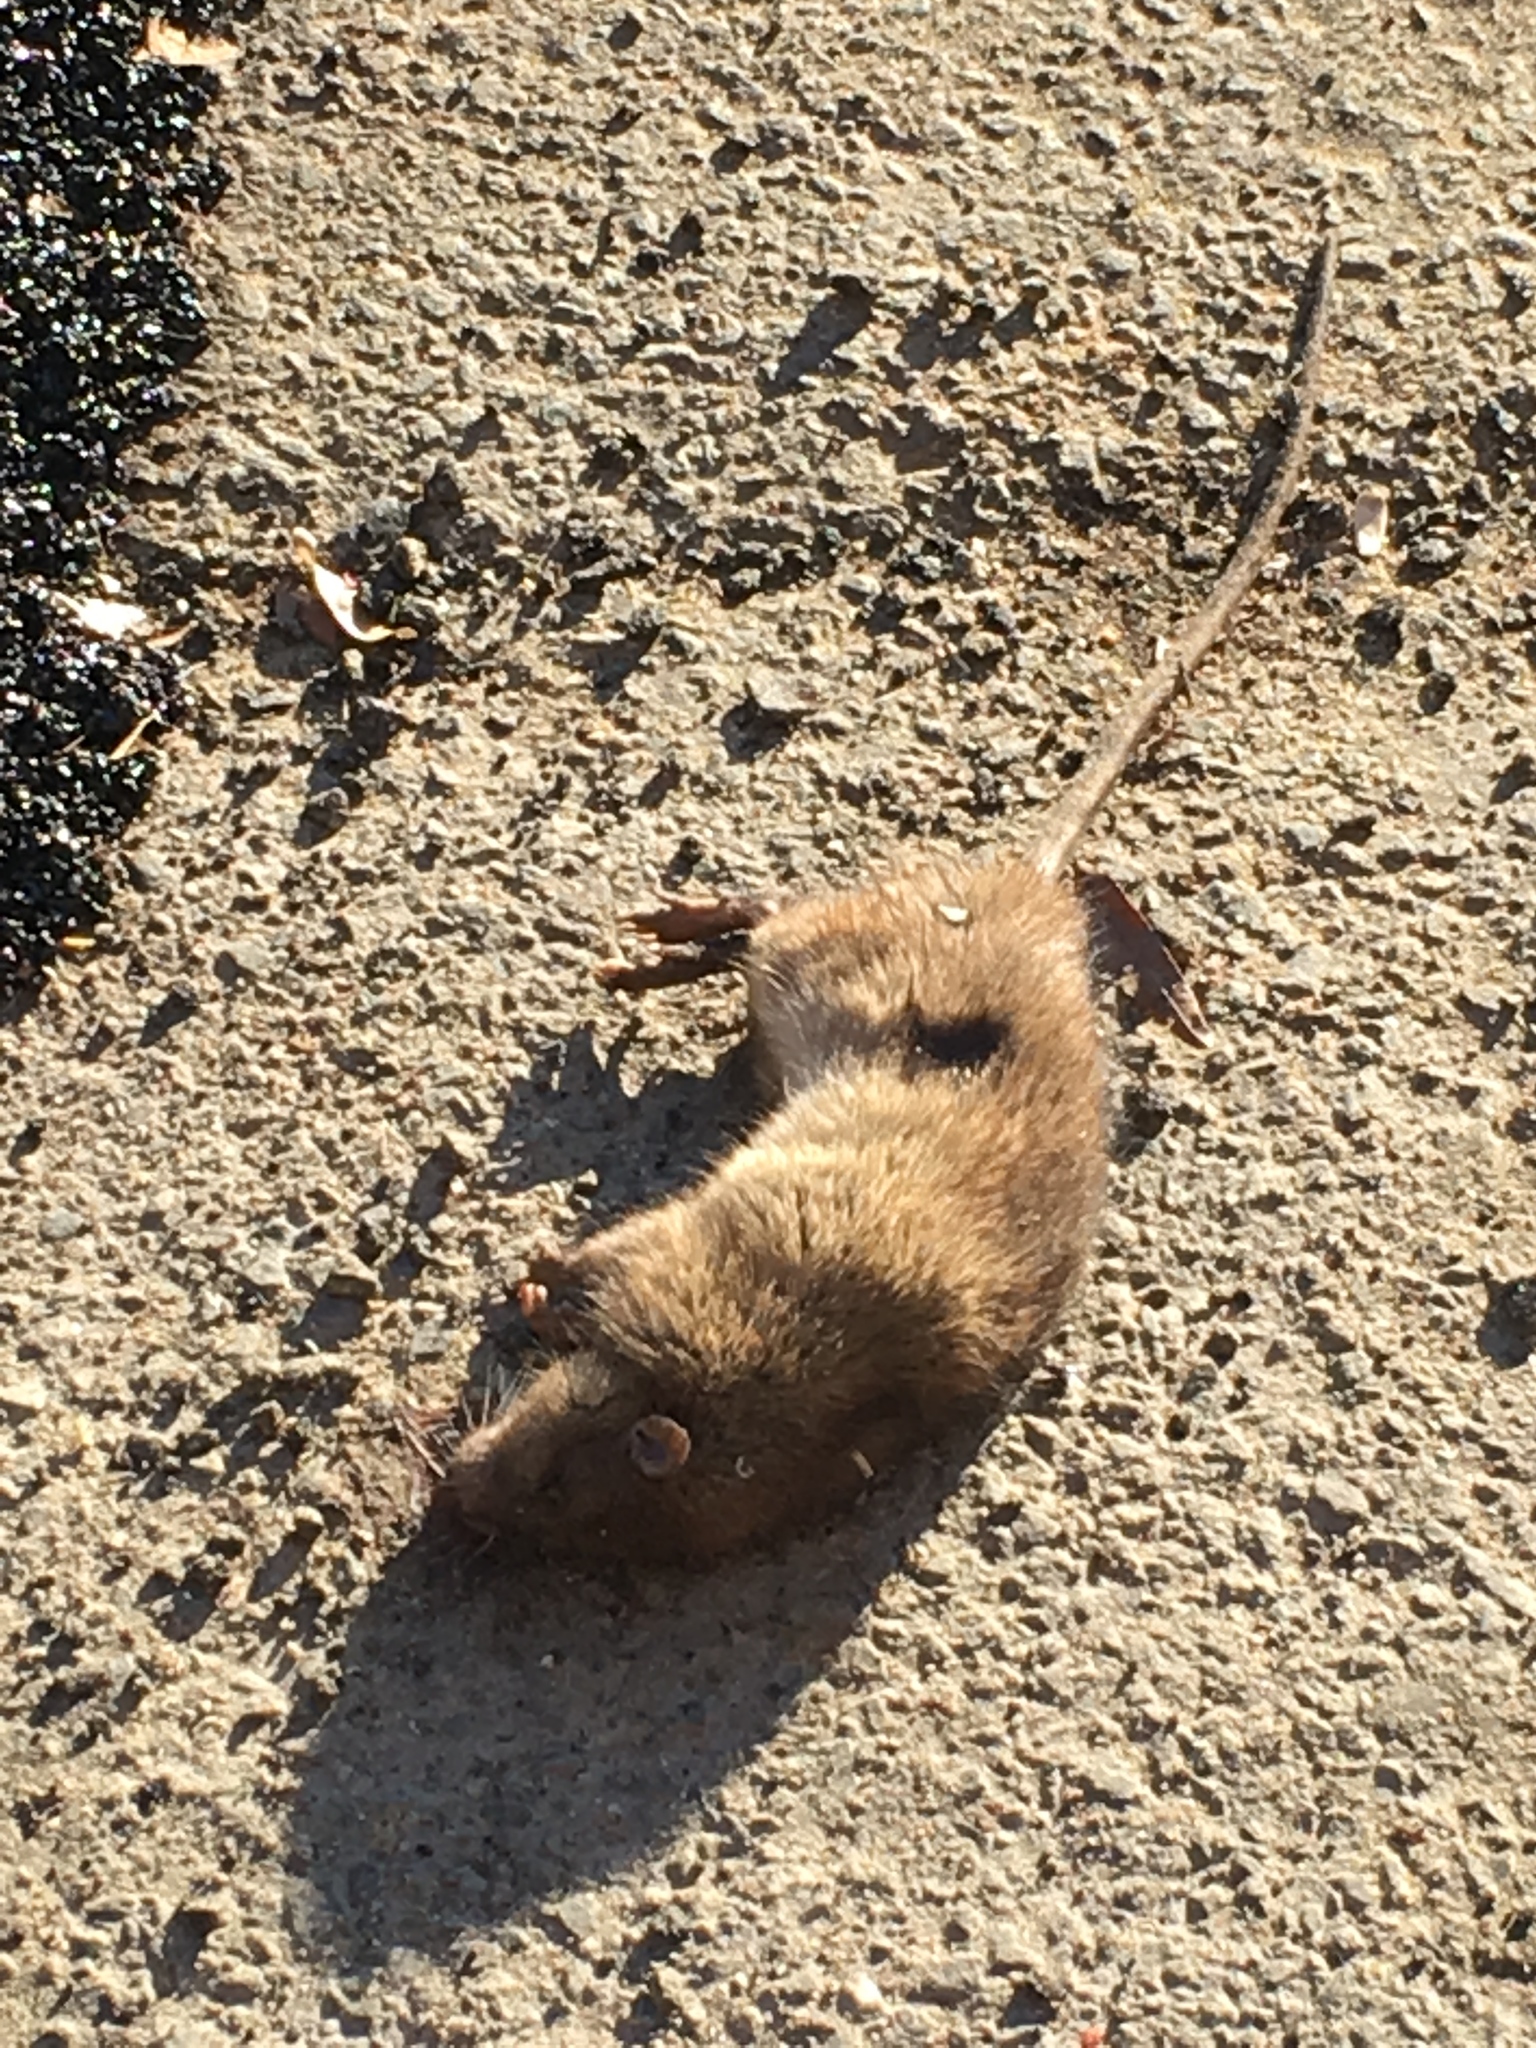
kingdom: Animalia
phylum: Chordata
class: Mammalia
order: Rodentia
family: Muridae
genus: Rattus
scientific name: Rattus norvegicus
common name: Brown rat
